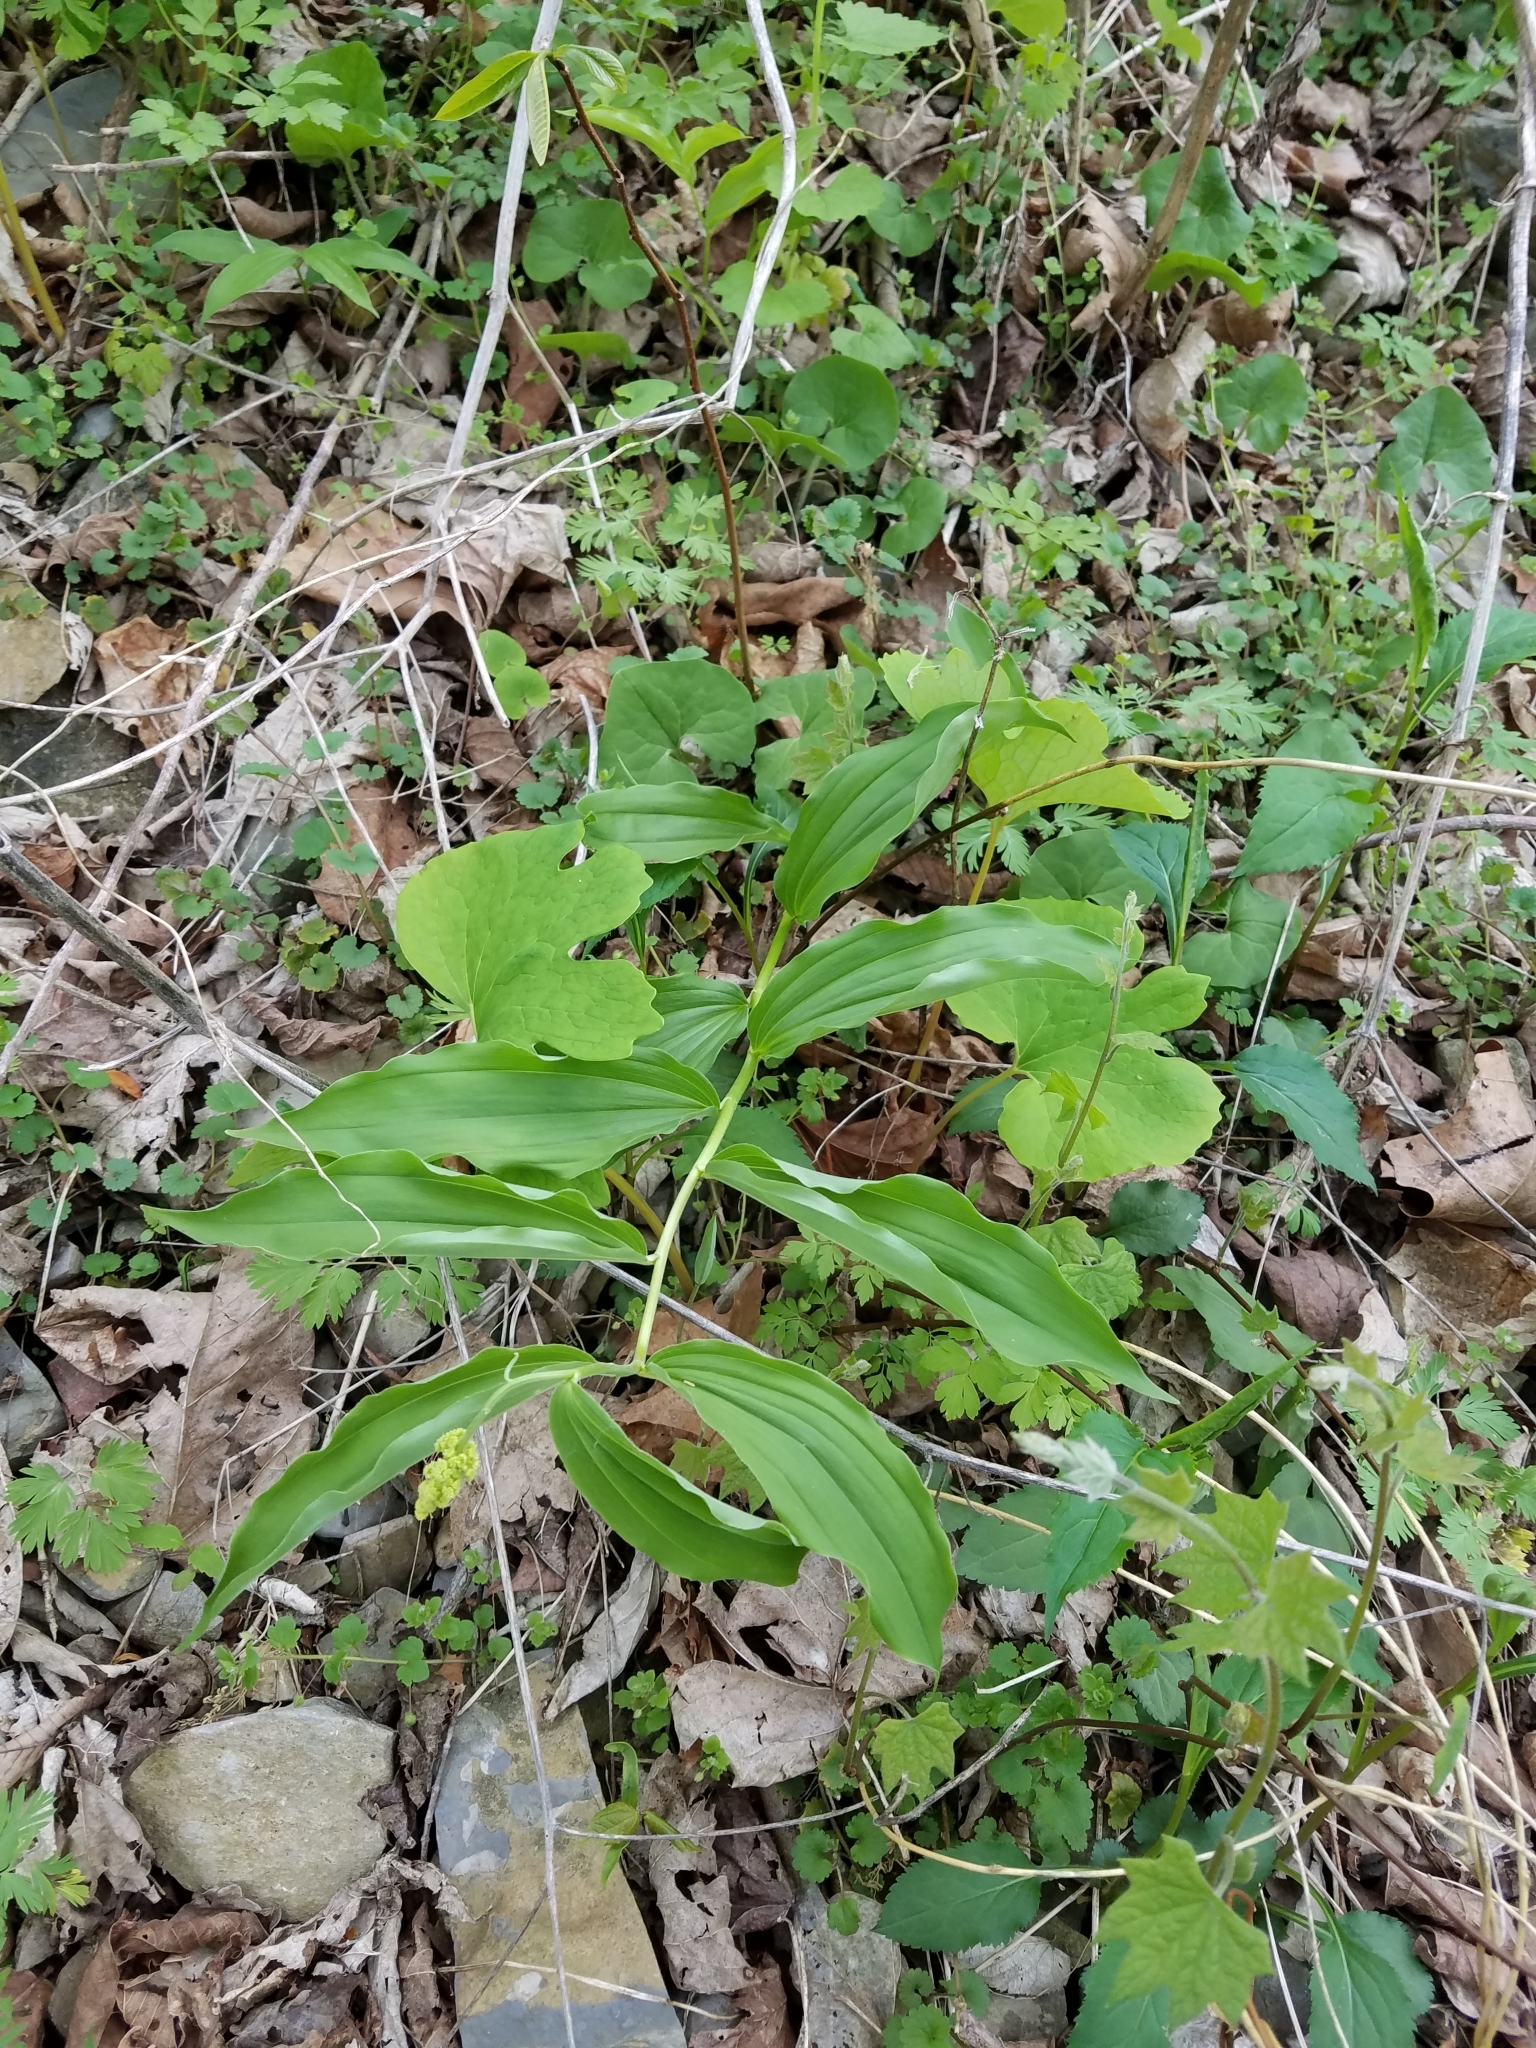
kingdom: Plantae
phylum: Tracheophyta
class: Liliopsida
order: Asparagales
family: Asparagaceae
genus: Maianthemum
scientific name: Maianthemum racemosum
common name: False spikenard
